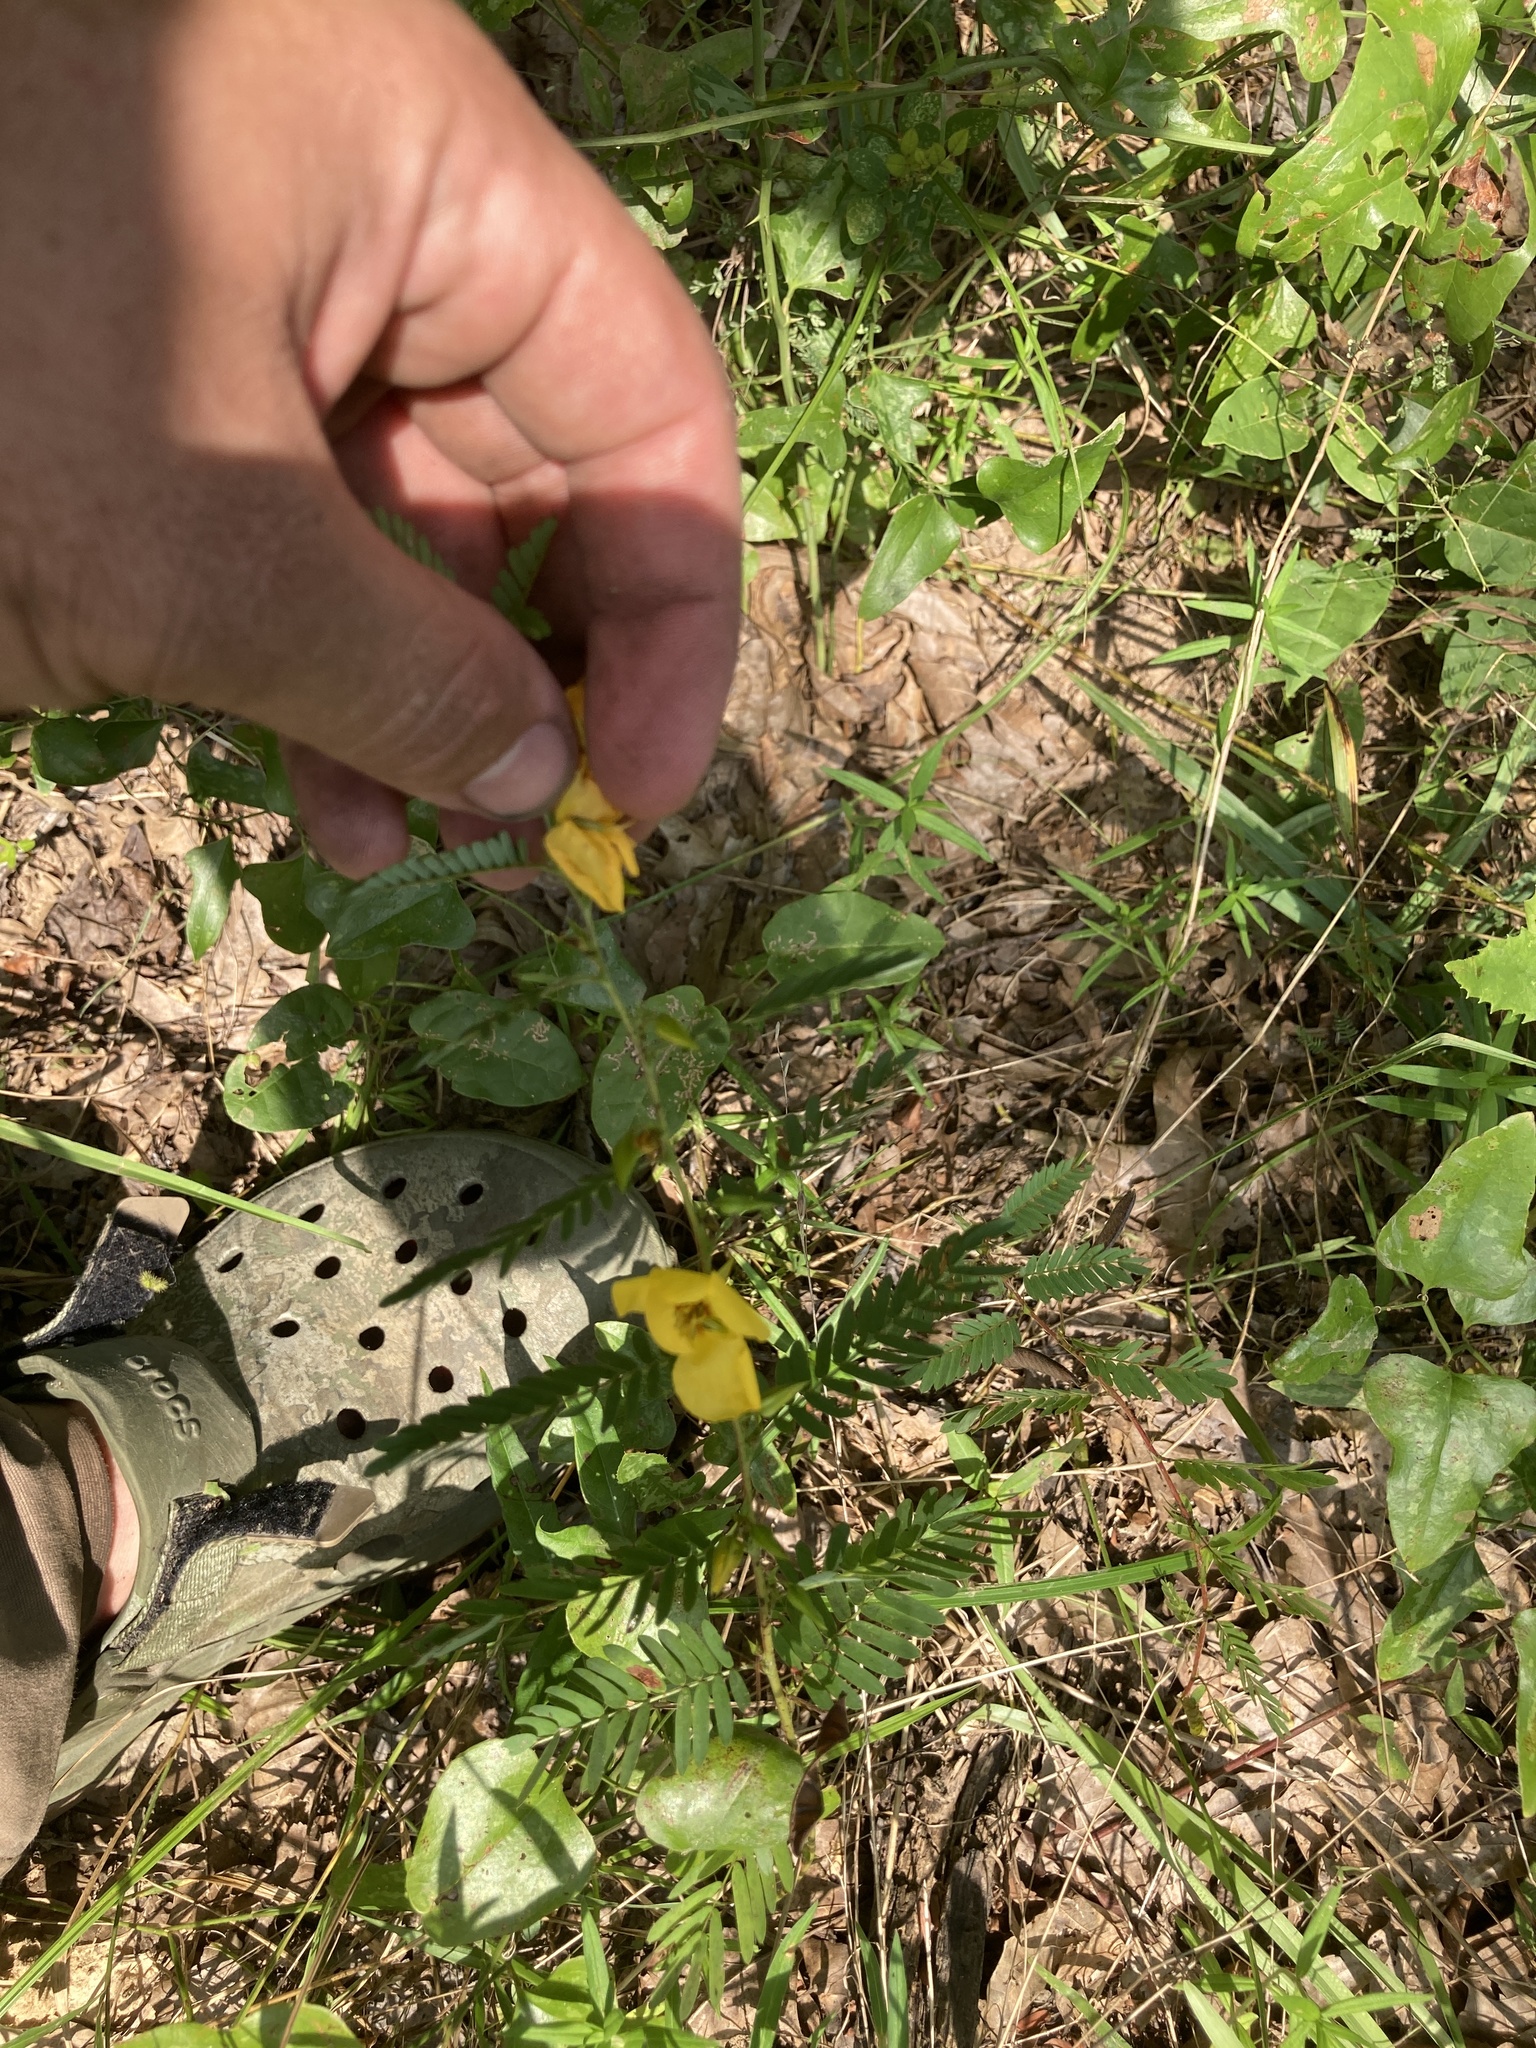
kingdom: Plantae
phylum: Tracheophyta
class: Magnoliopsida
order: Fabales
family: Fabaceae
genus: Chamaecrista
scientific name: Chamaecrista fasciculata
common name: Golden cassia
